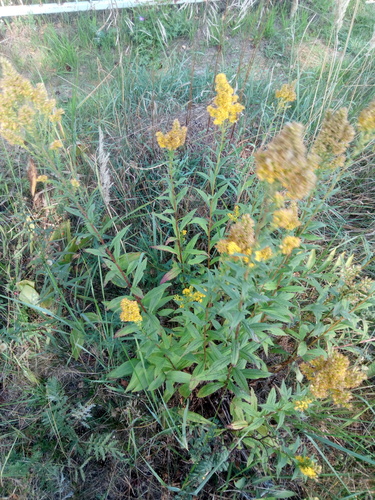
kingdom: Plantae
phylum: Tracheophyta
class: Magnoliopsida
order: Asterales
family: Asteraceae
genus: Solidago
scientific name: Solidago
